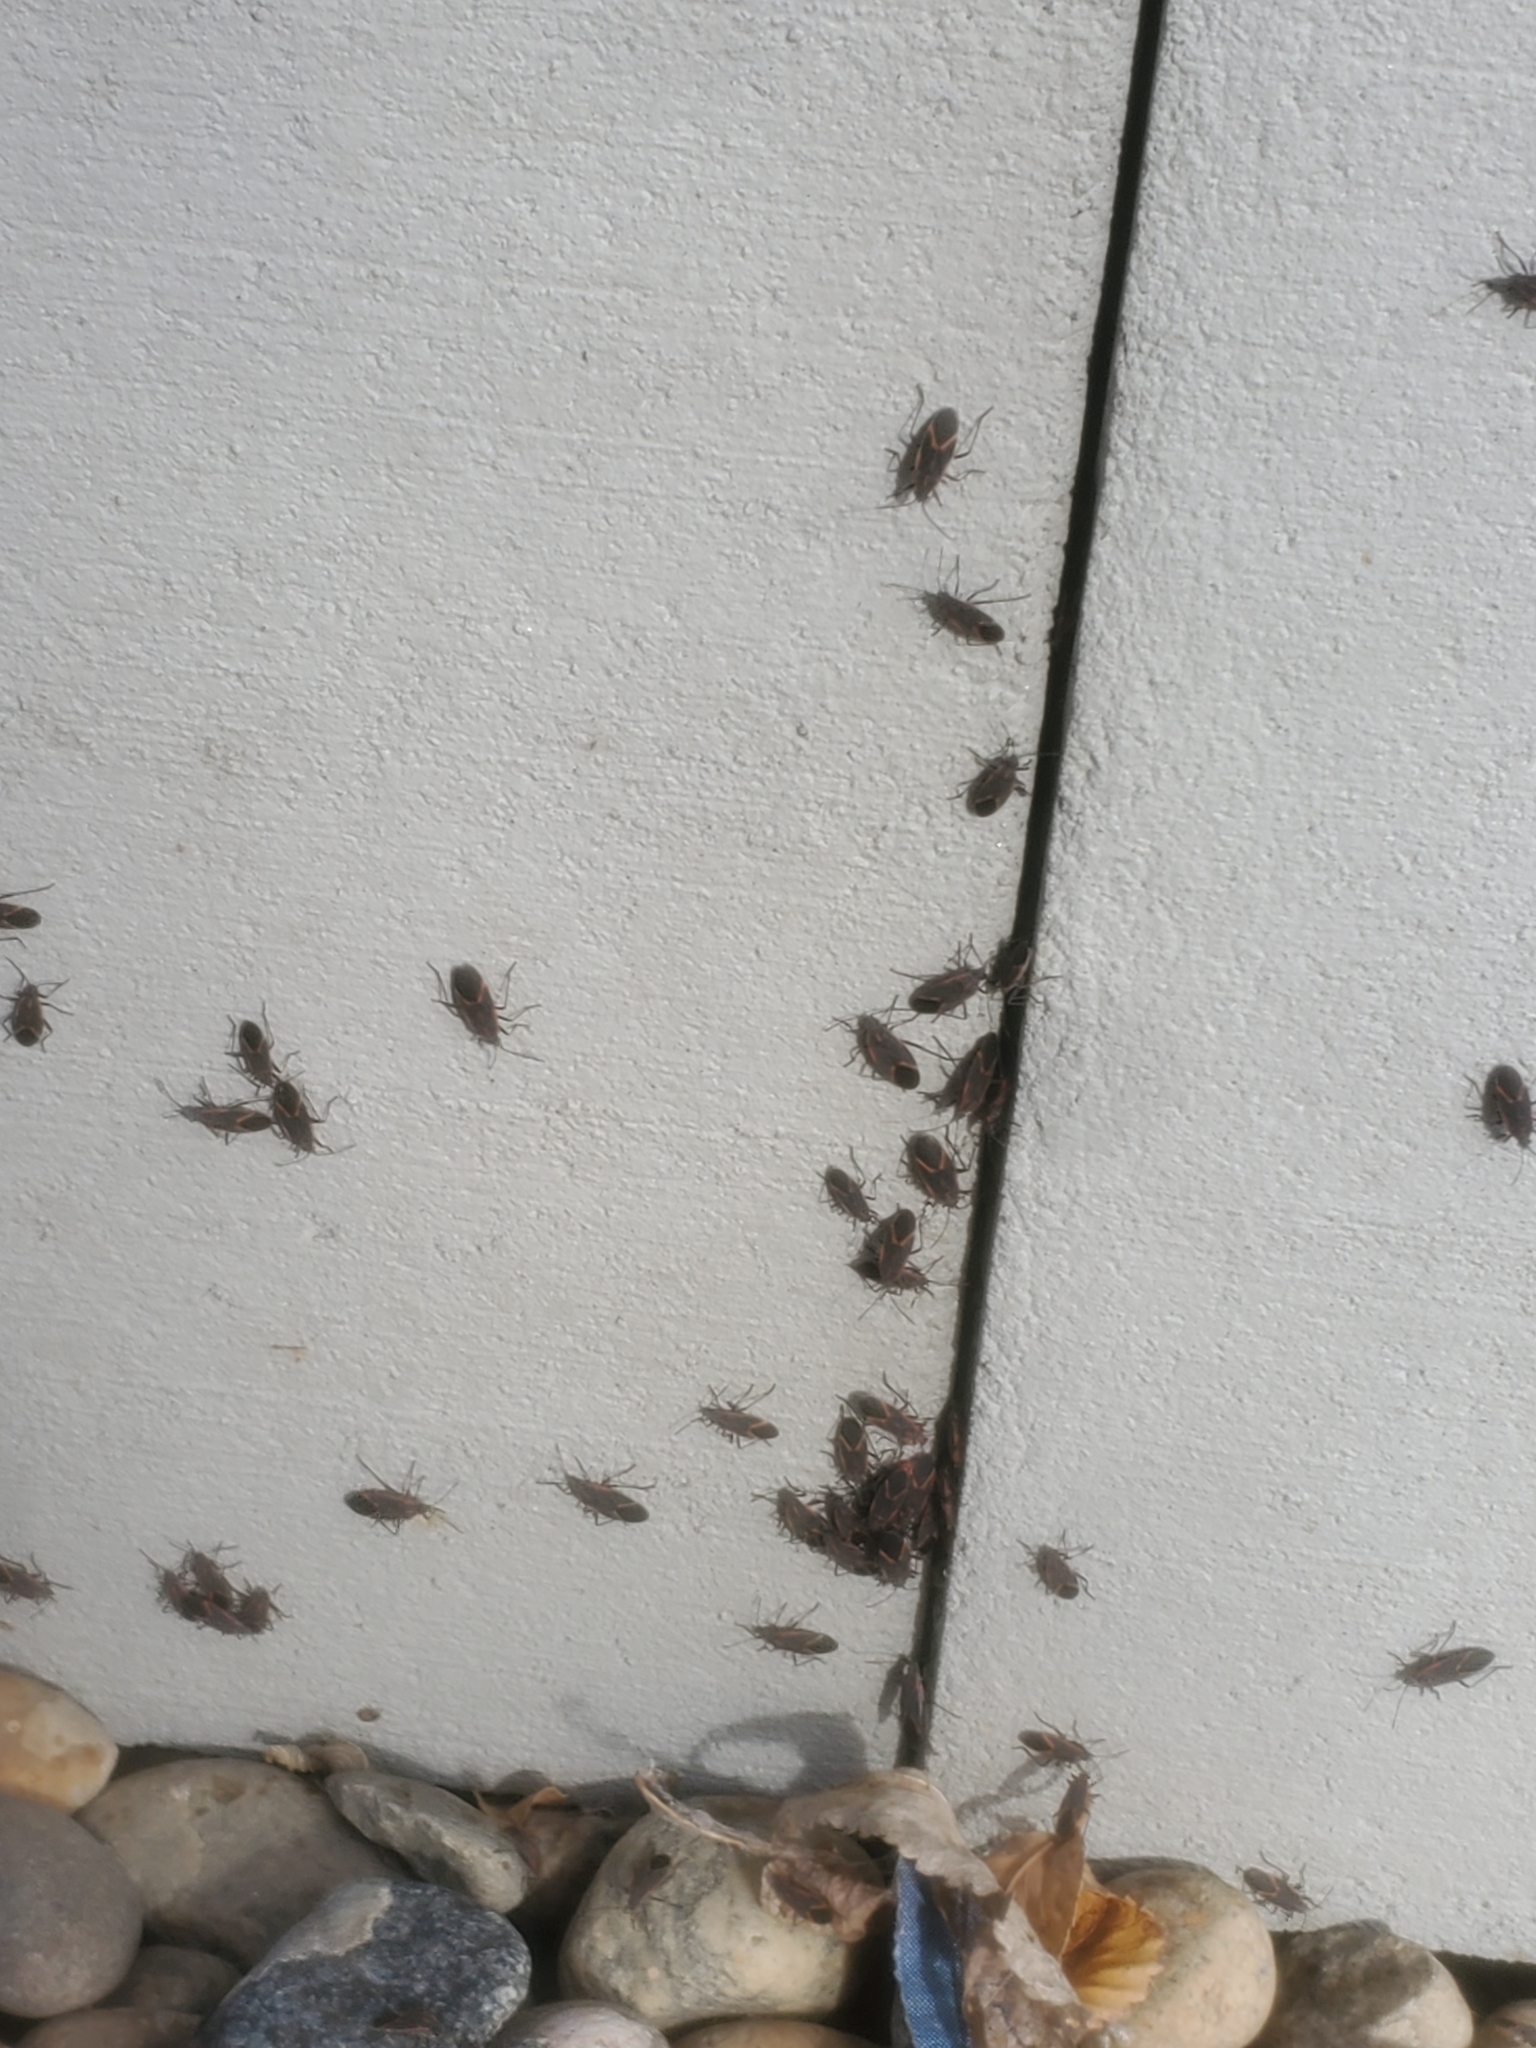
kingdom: Animalia
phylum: Arthropoda
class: Insecta
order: Hemiptera
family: Rhopalidae
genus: Boisea
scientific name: Boisea trivittata
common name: Boxelder bug
